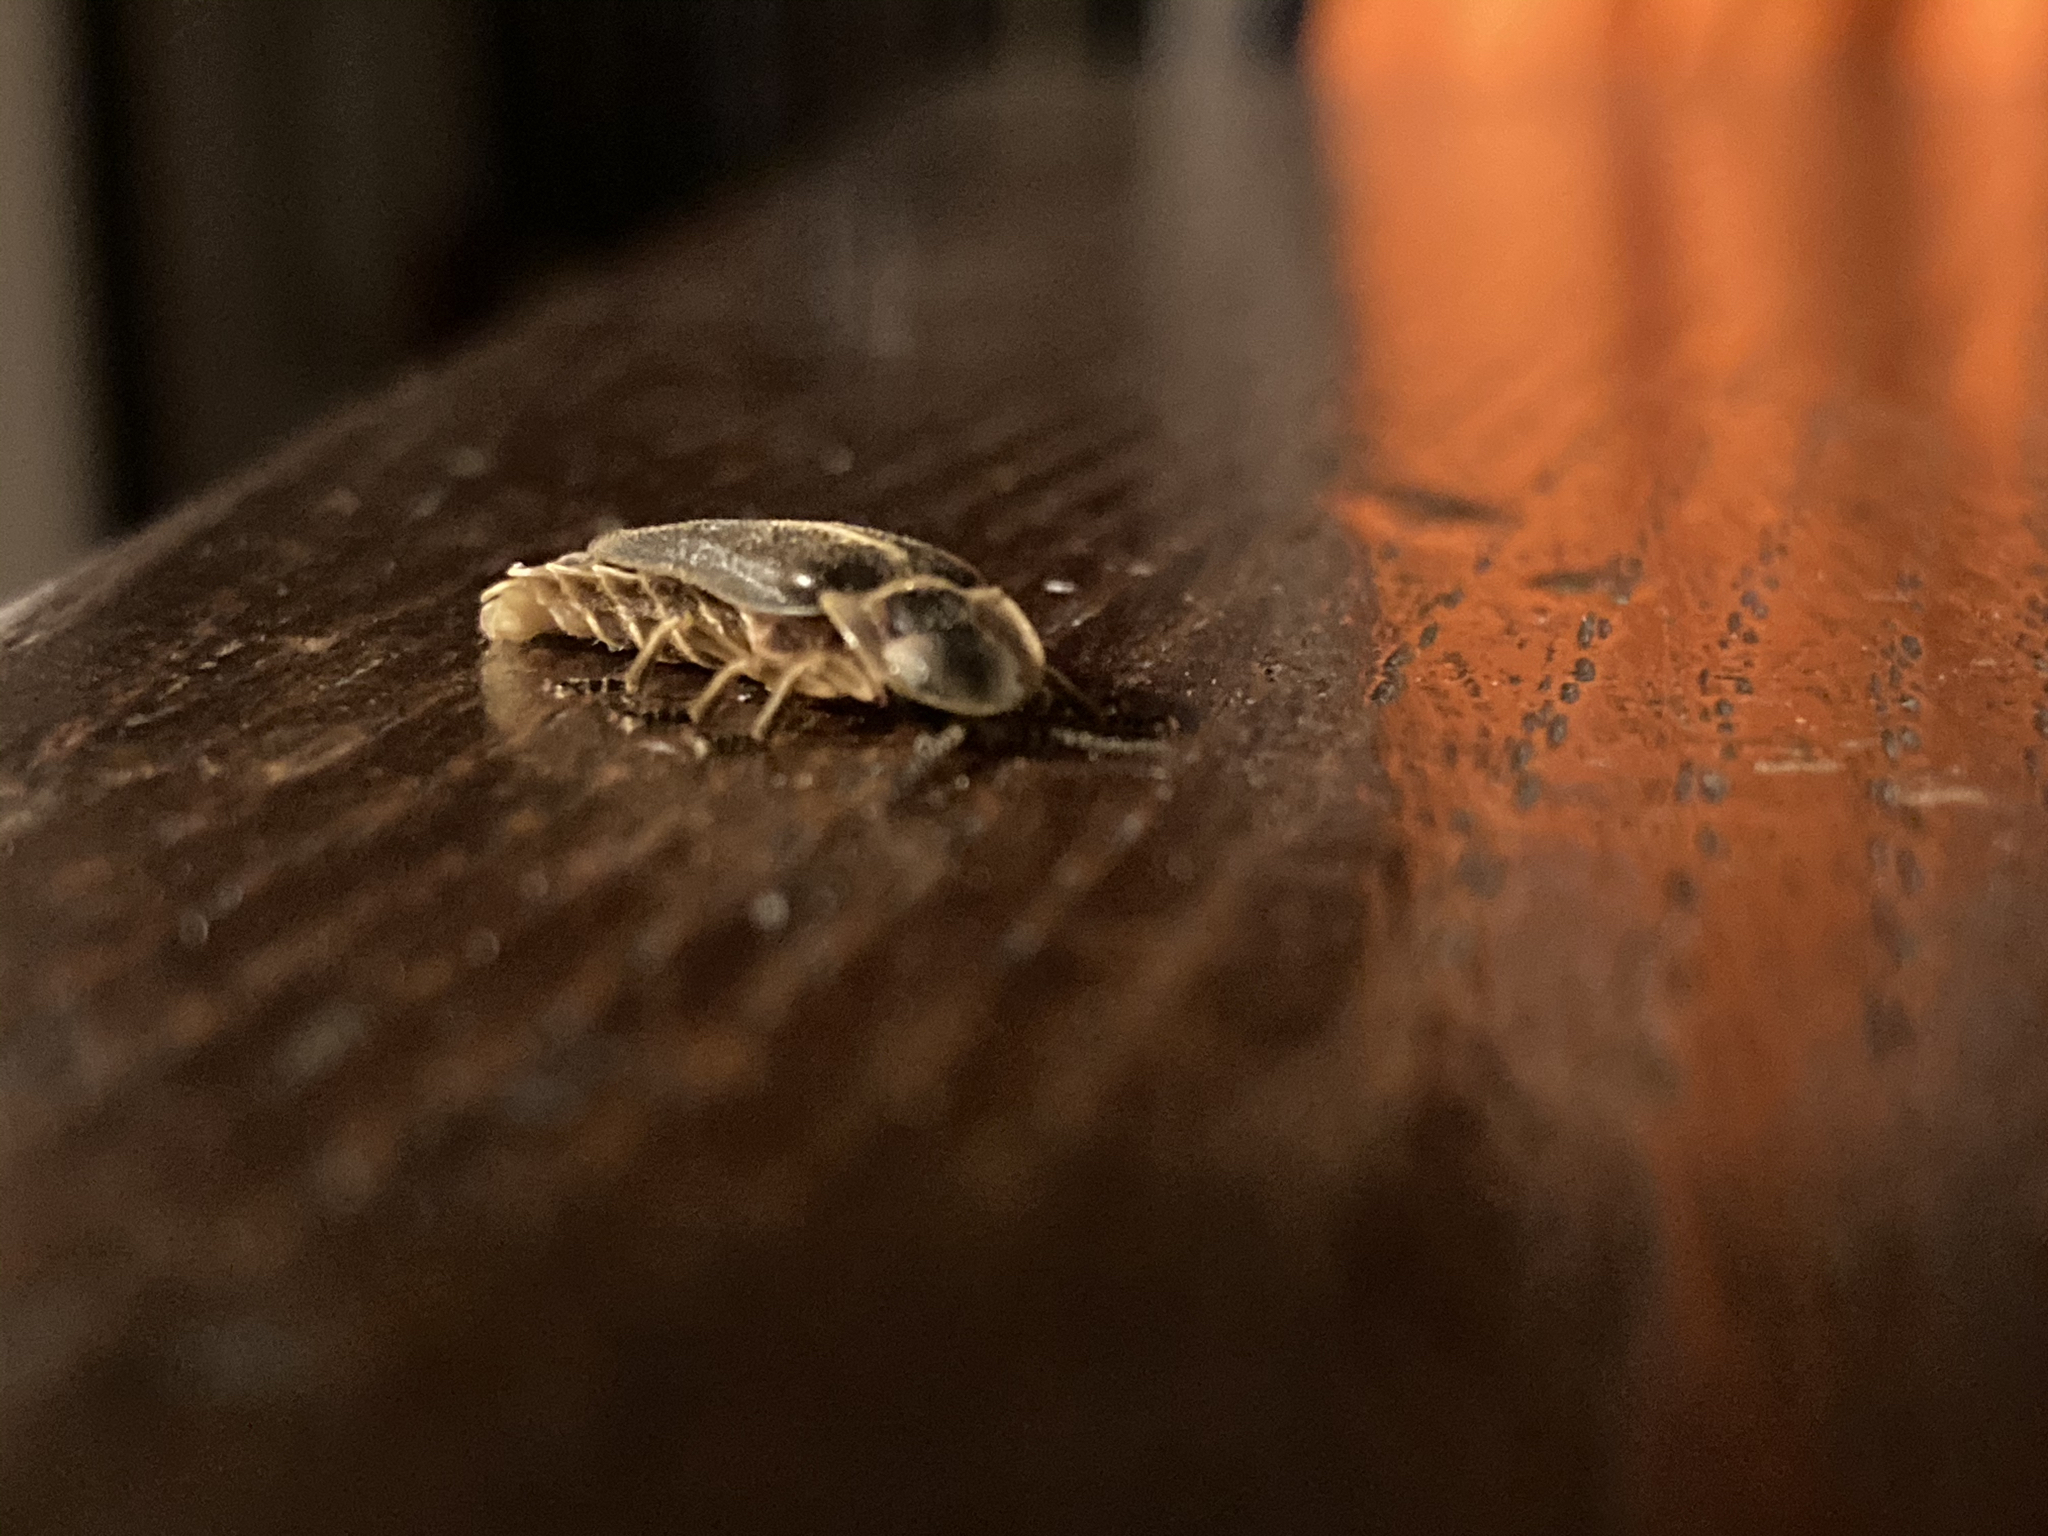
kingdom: Animalia
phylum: Arthropoda
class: Insecta
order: Coleoptera
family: Lampyridae
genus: Lampyris
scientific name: Lampyris
